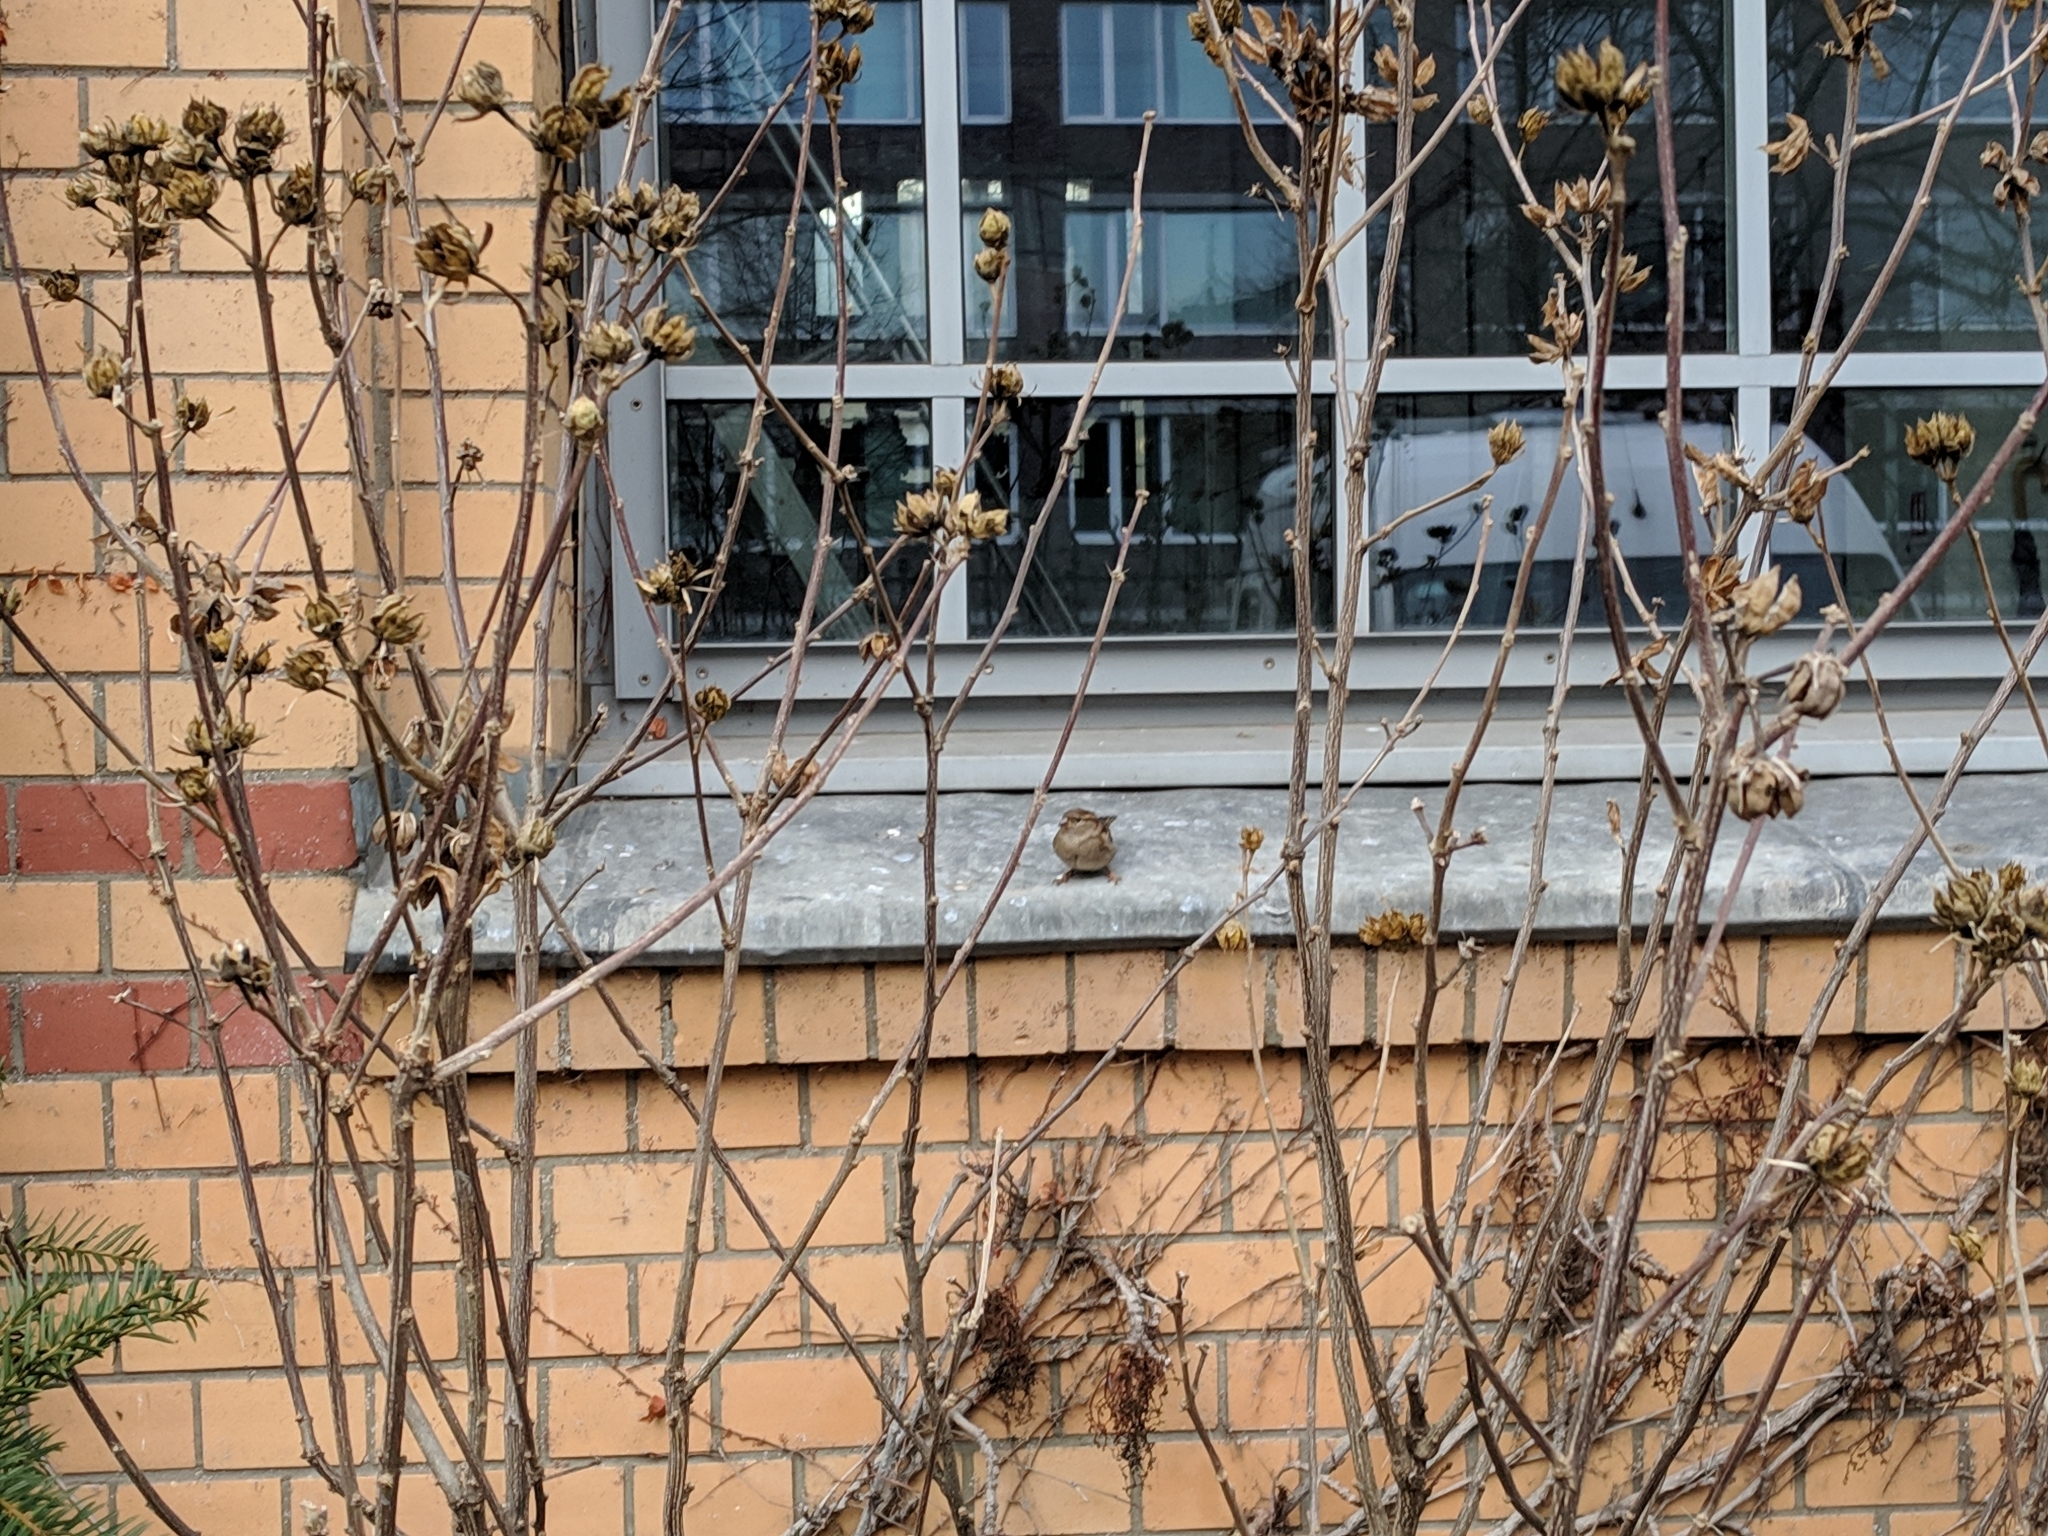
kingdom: Animalia
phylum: Chordata
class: Aves
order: Passeriformes
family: Passeridae
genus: Passer
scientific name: Passer domesticus
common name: House sparrow
